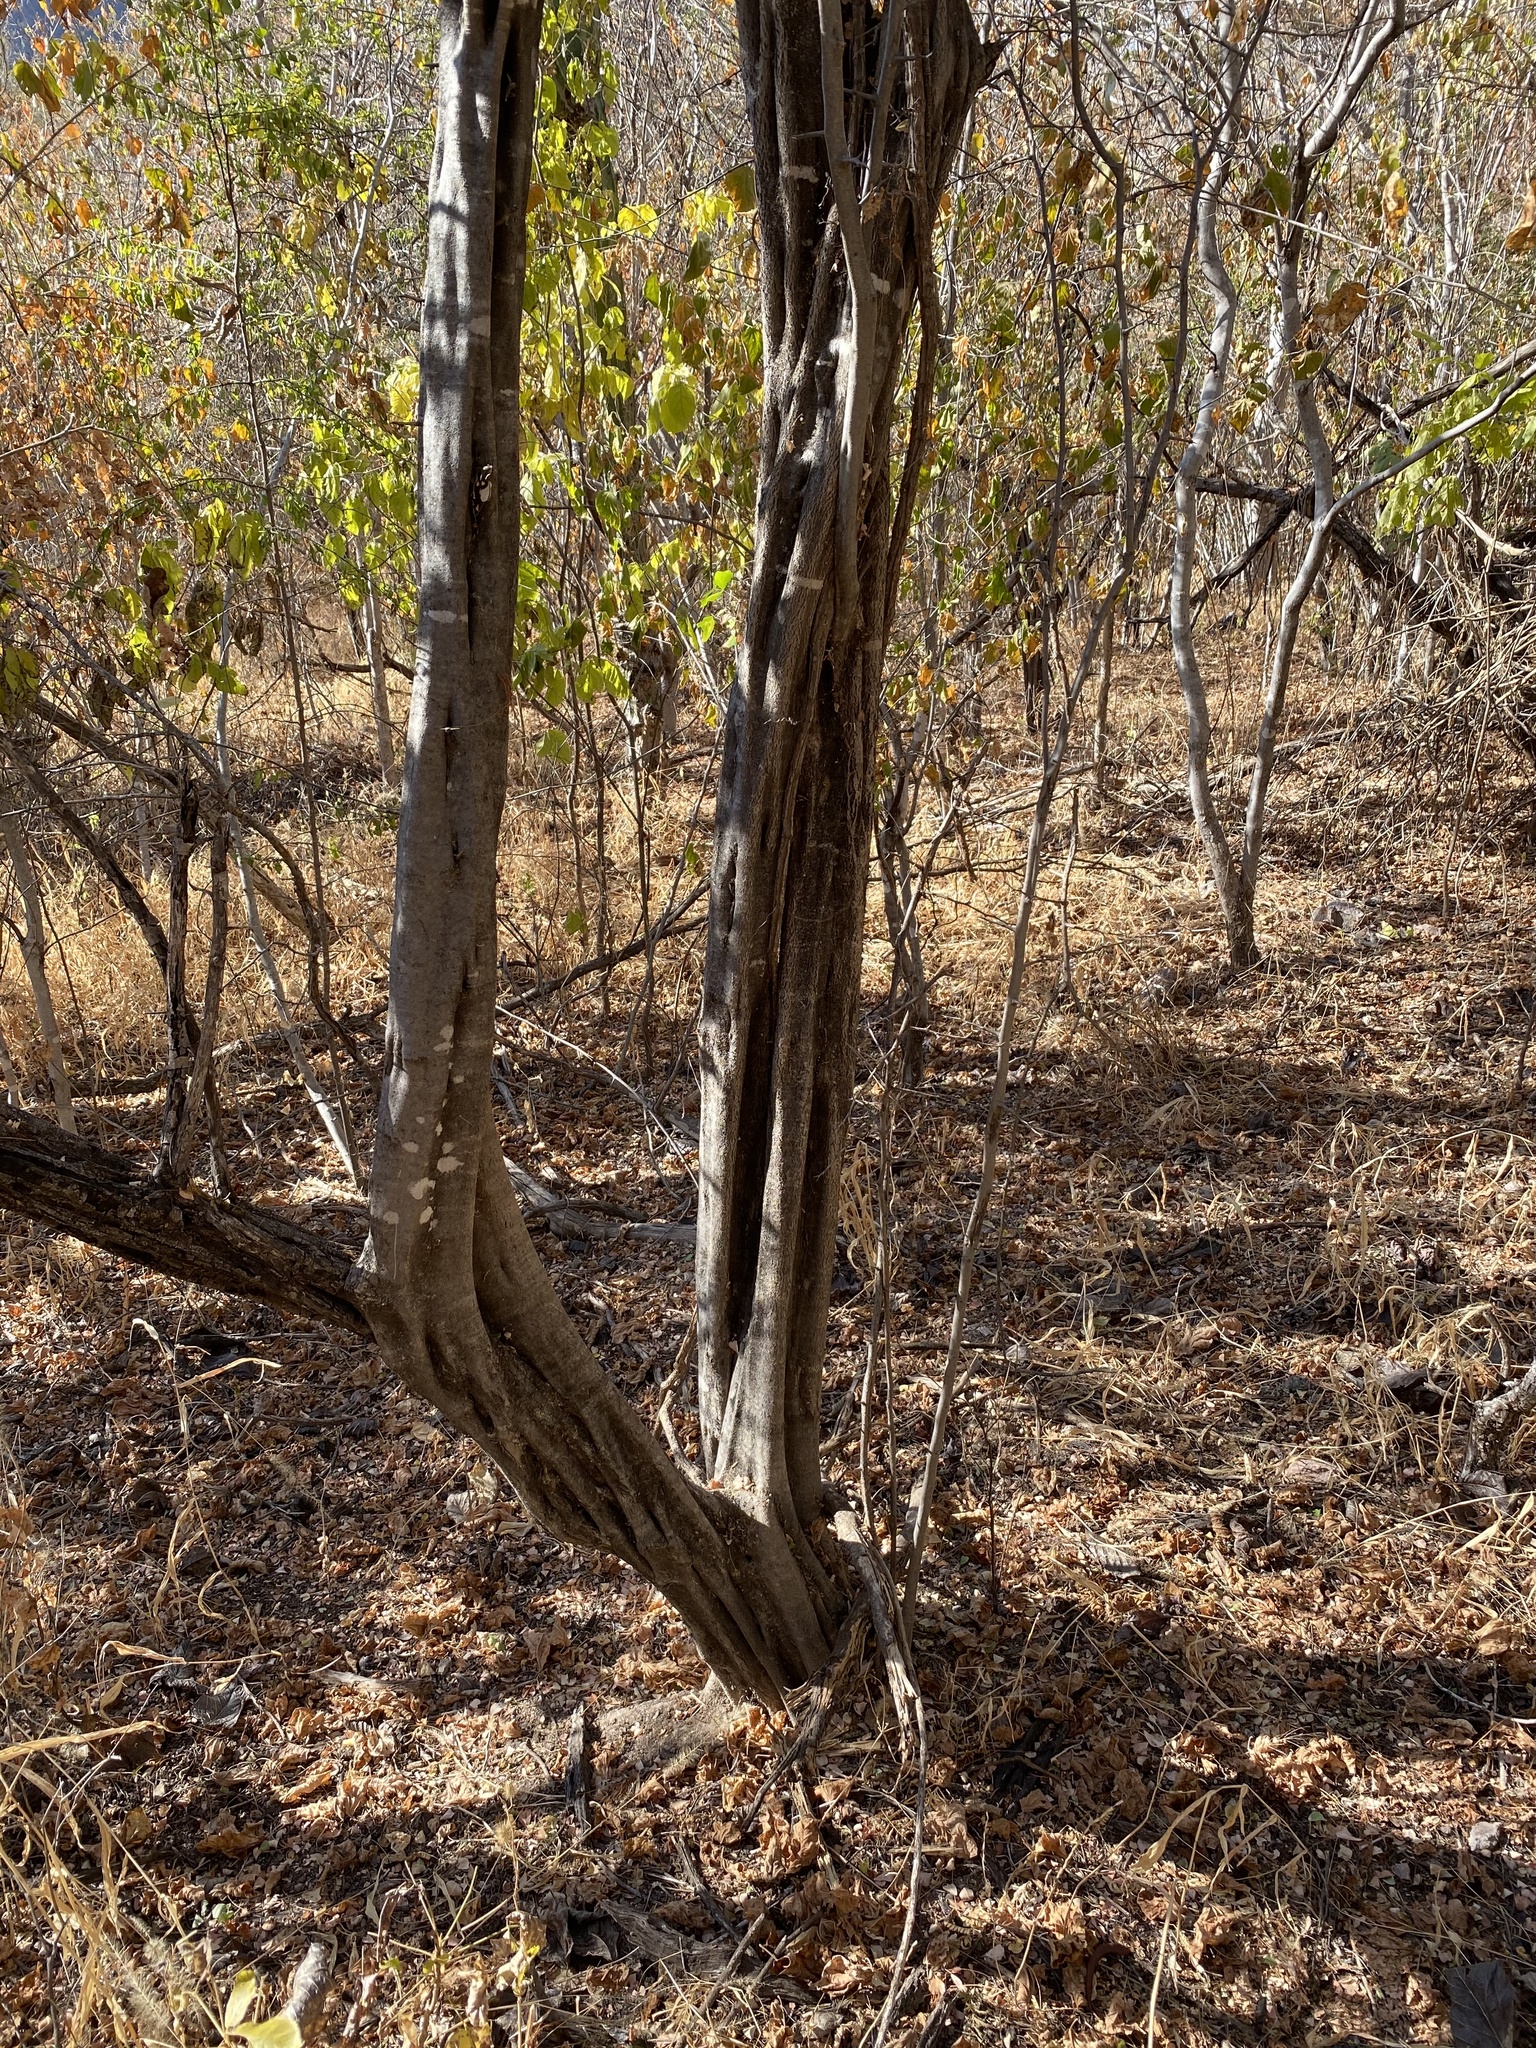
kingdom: Plantae
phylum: Tracheophyta
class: Magnoliopsida
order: Fabales
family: Fabaceae
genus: Haematoxylum
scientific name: Haematoxylum brasiletto
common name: Peachwood
